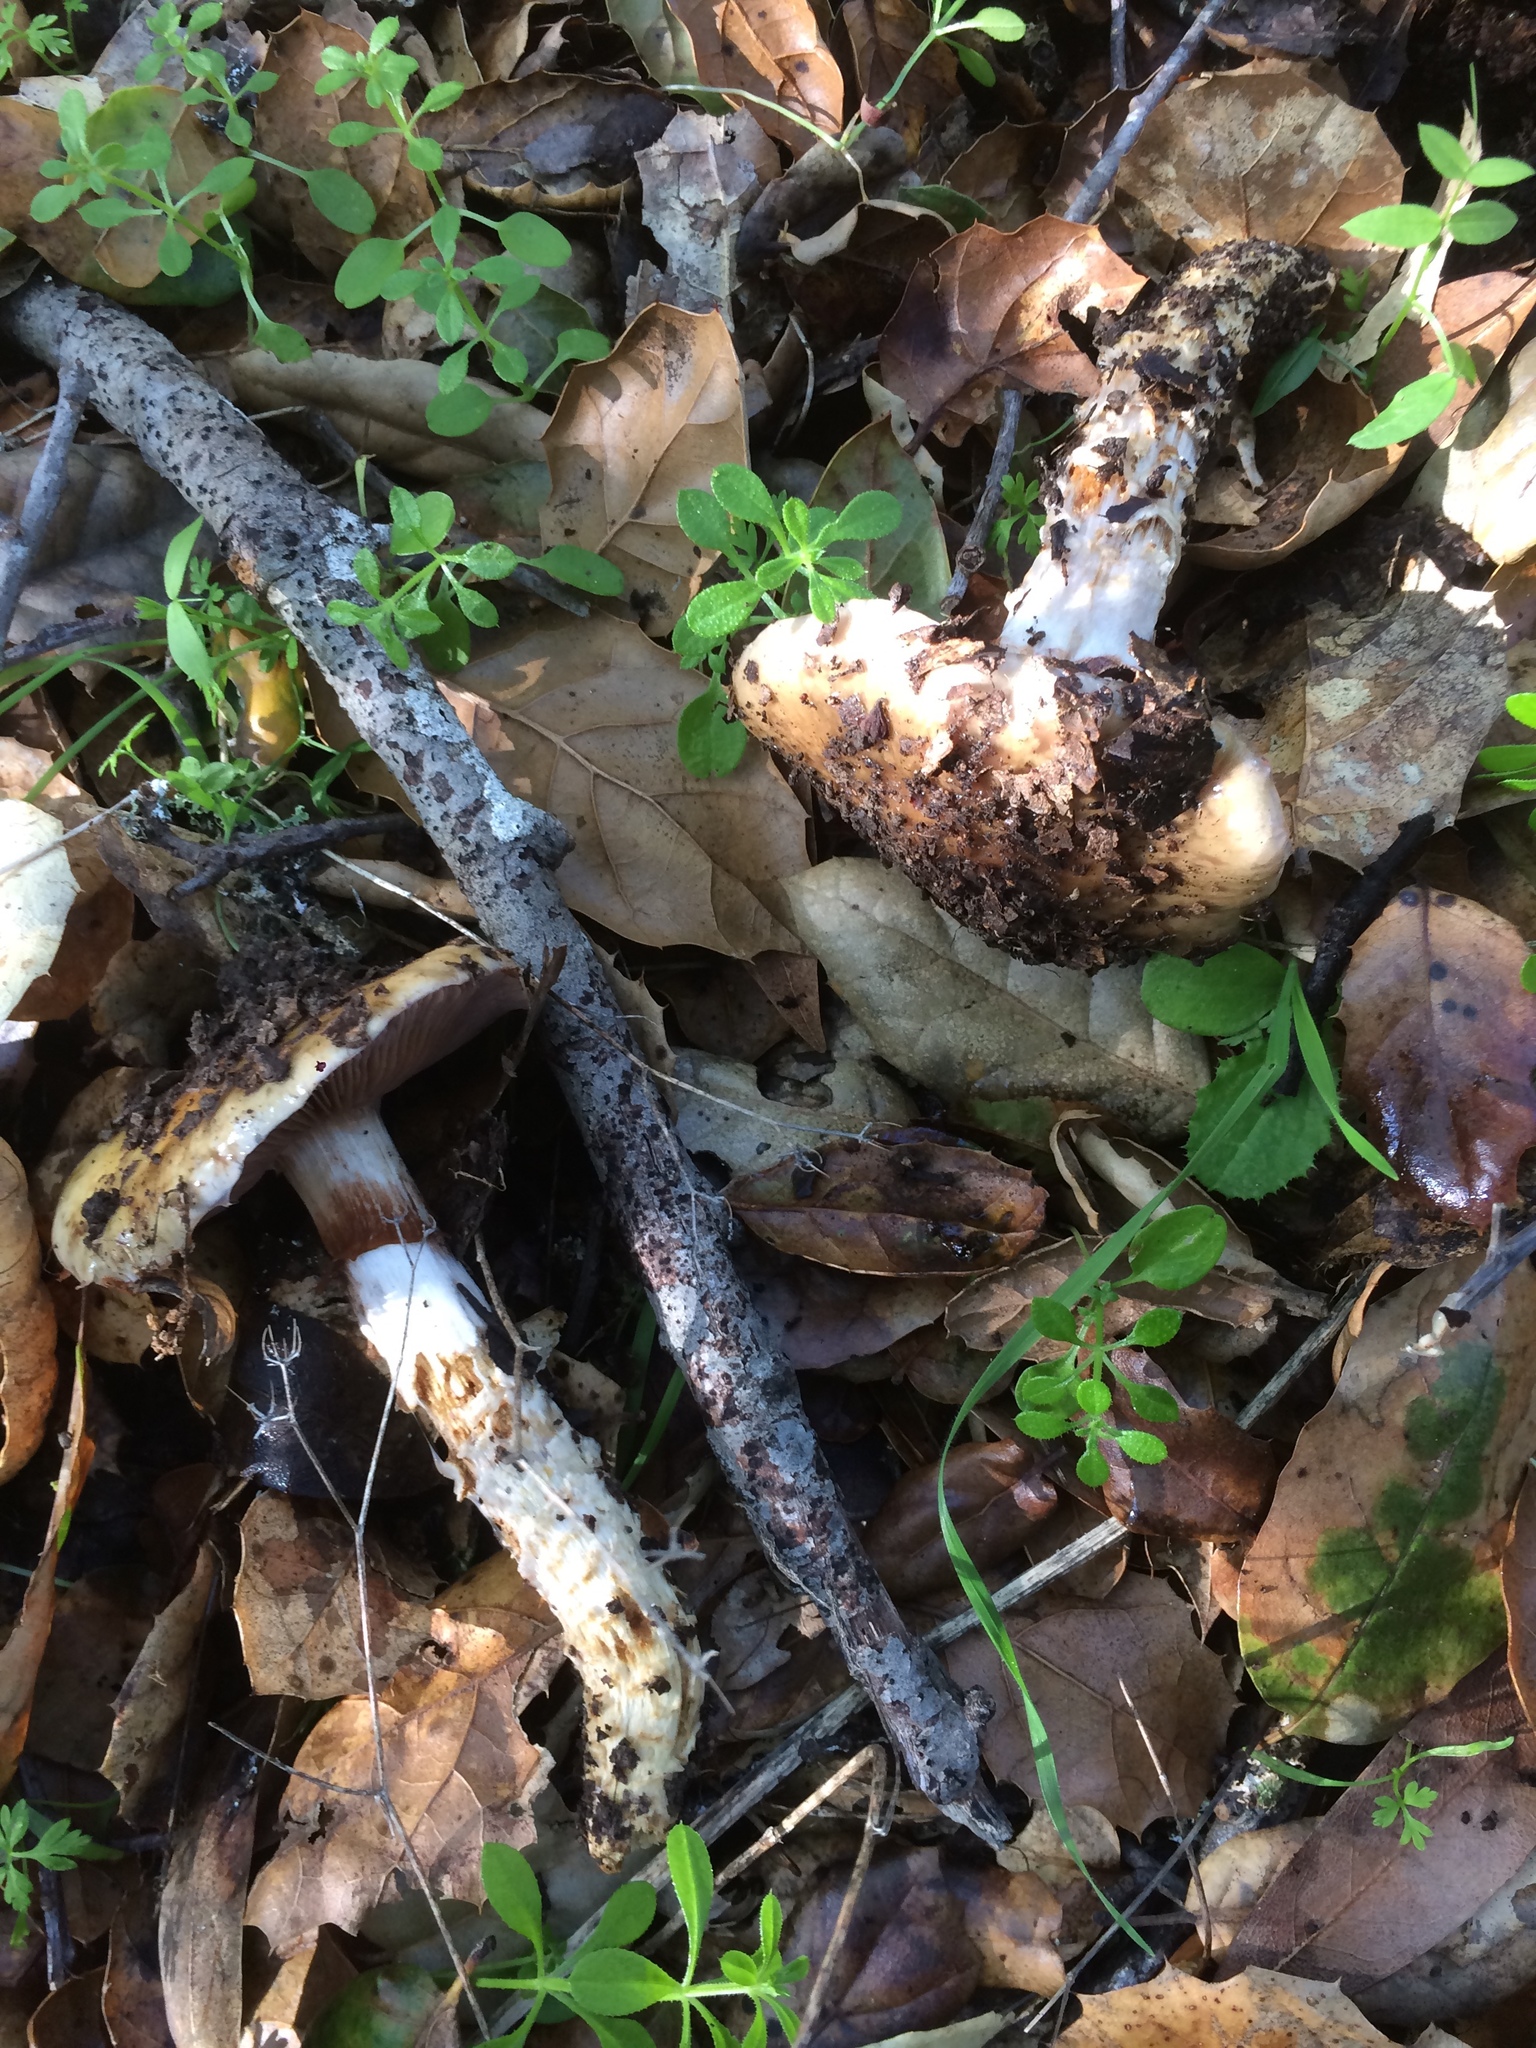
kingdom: Fungi
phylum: Basidiomycota
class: Agaricomycetes
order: Agaricales
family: Cortinariaceae
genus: Cortinarius
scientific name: Cortinarius glutinosoarmillatus
